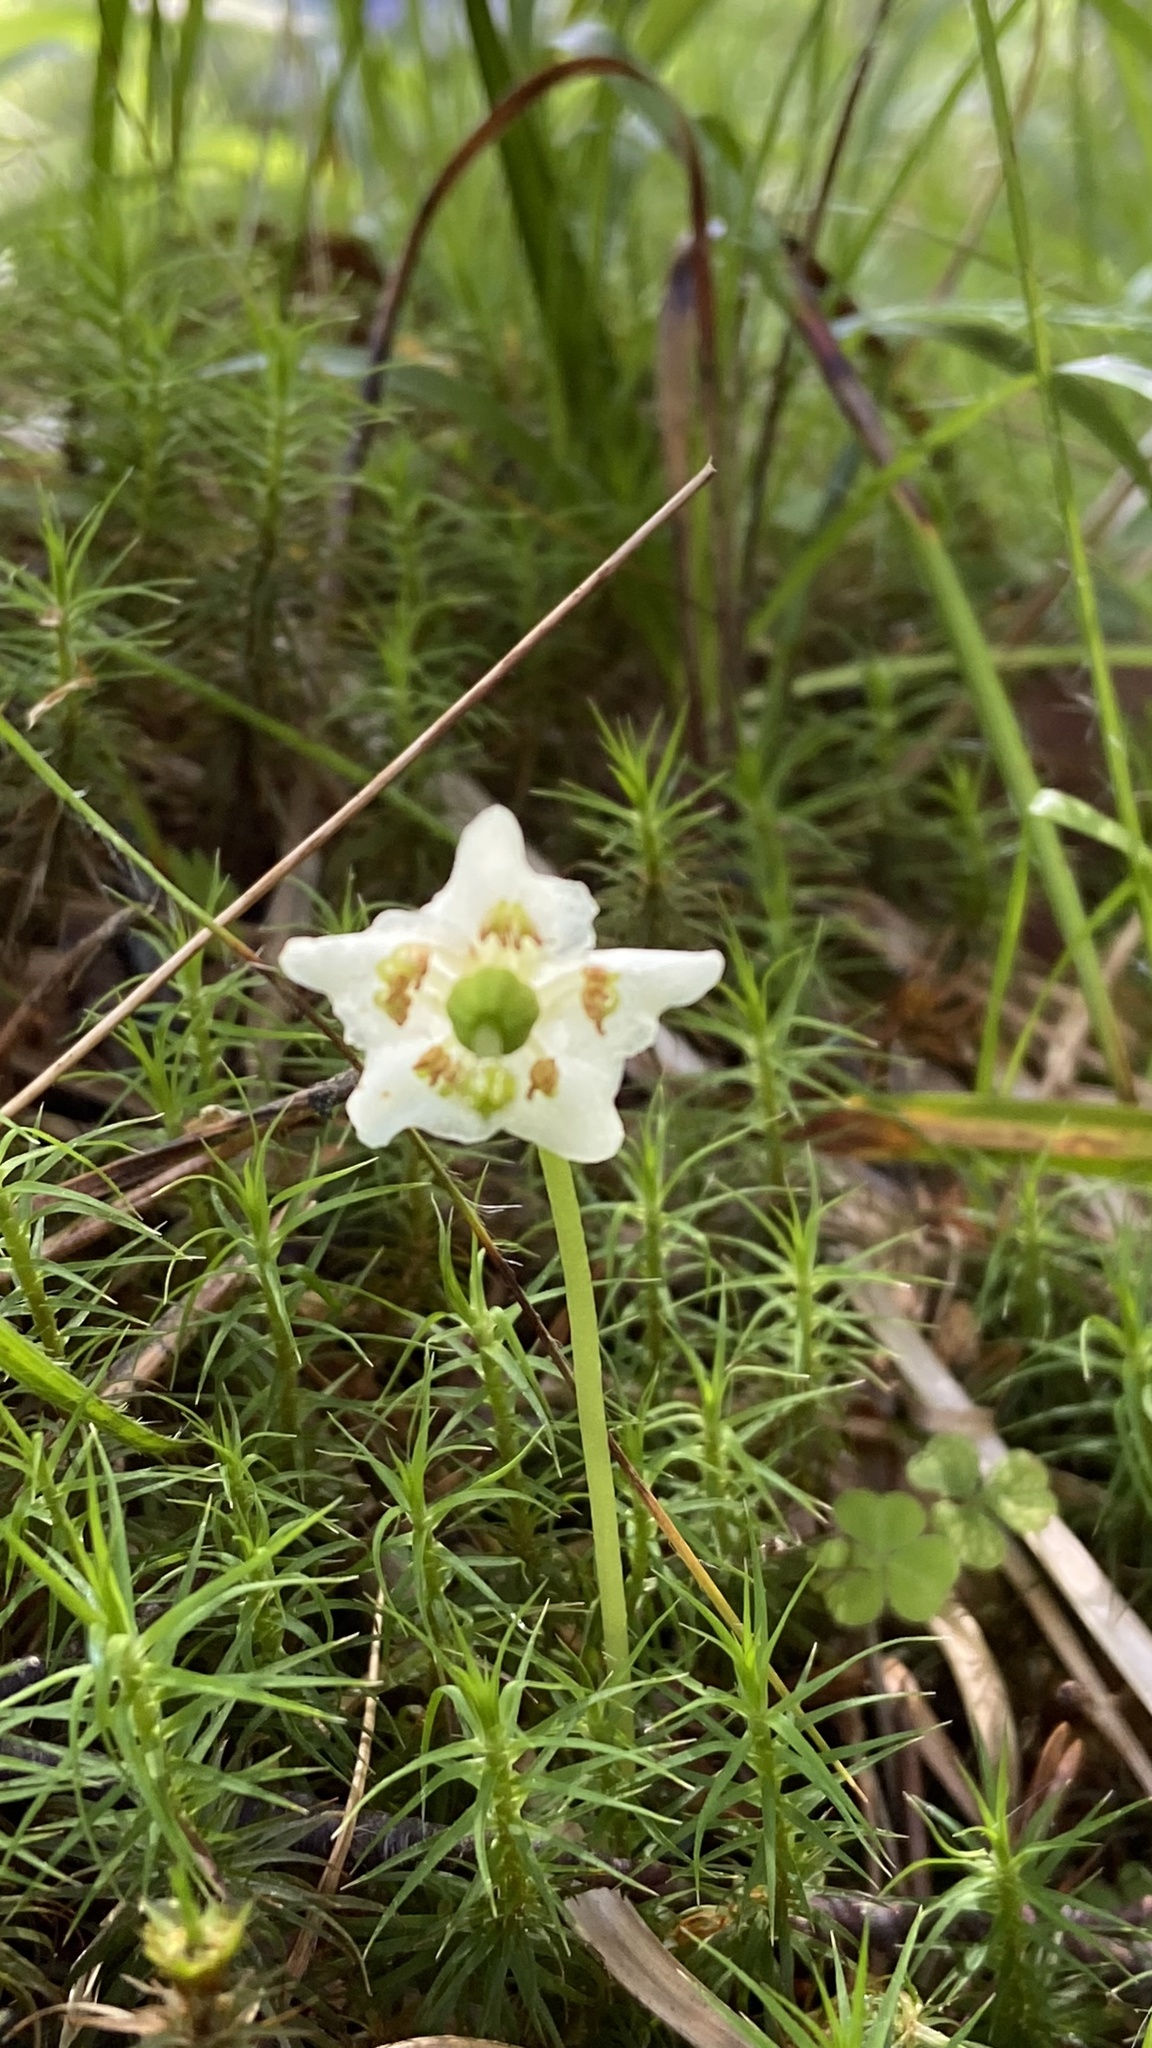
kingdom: Plantae
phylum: Tracheophyta
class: Magnoliopsida
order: Ericales
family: Ericaceae
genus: Moneses
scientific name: Moneses uniflora
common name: One-flowered wintergreen
